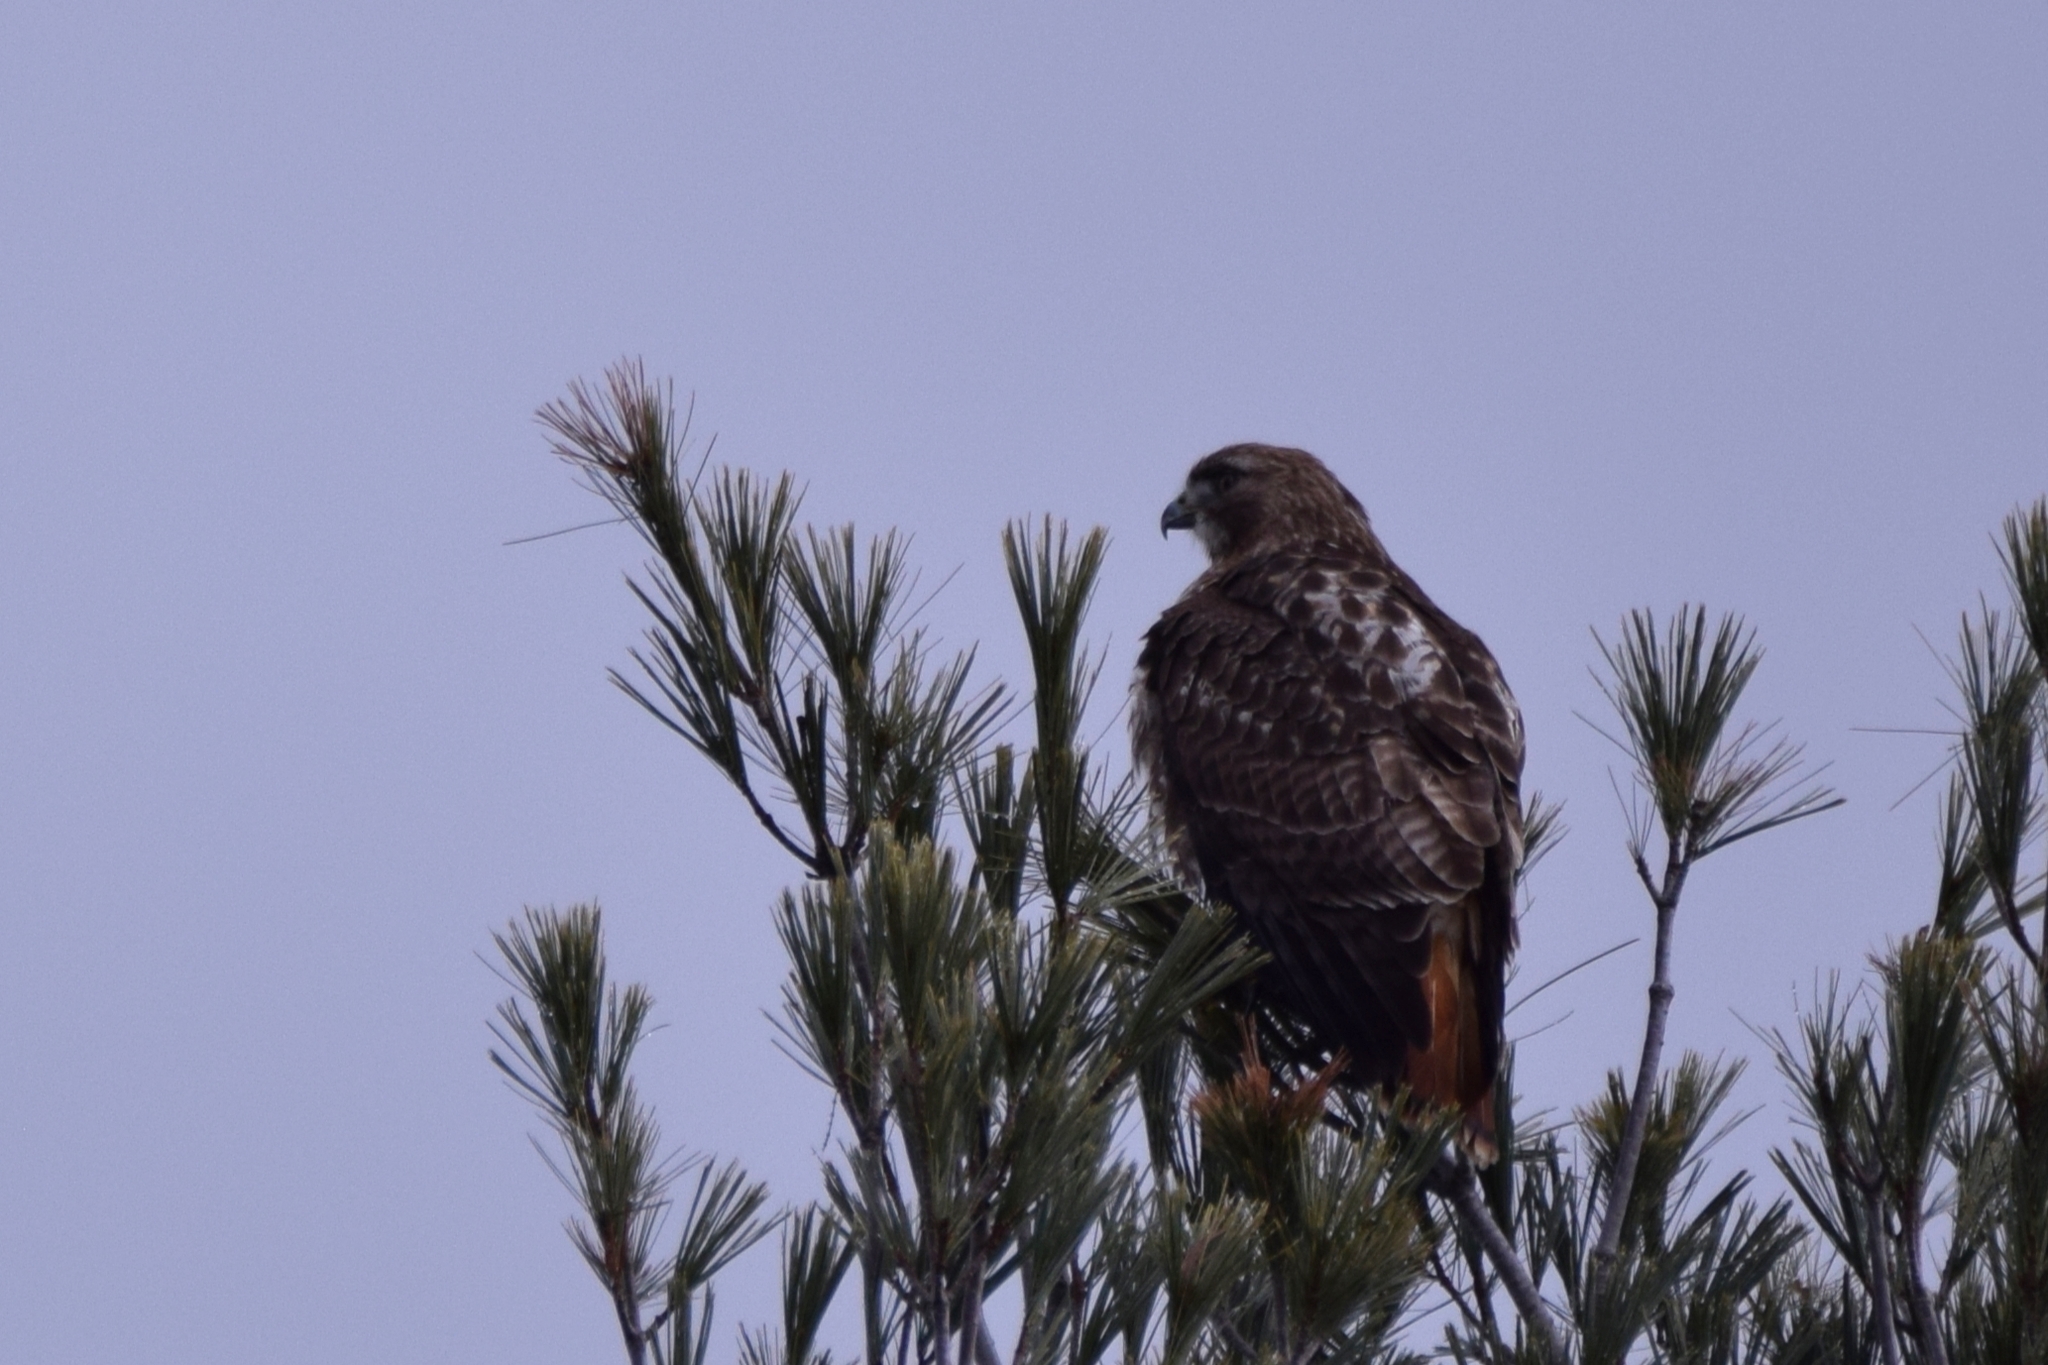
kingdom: Animalia
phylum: Chordata
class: Aves
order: Accipitriformes
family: Accipitridae
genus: Buteo
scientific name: Buteo jamaicensis
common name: Red-tailed hawk
